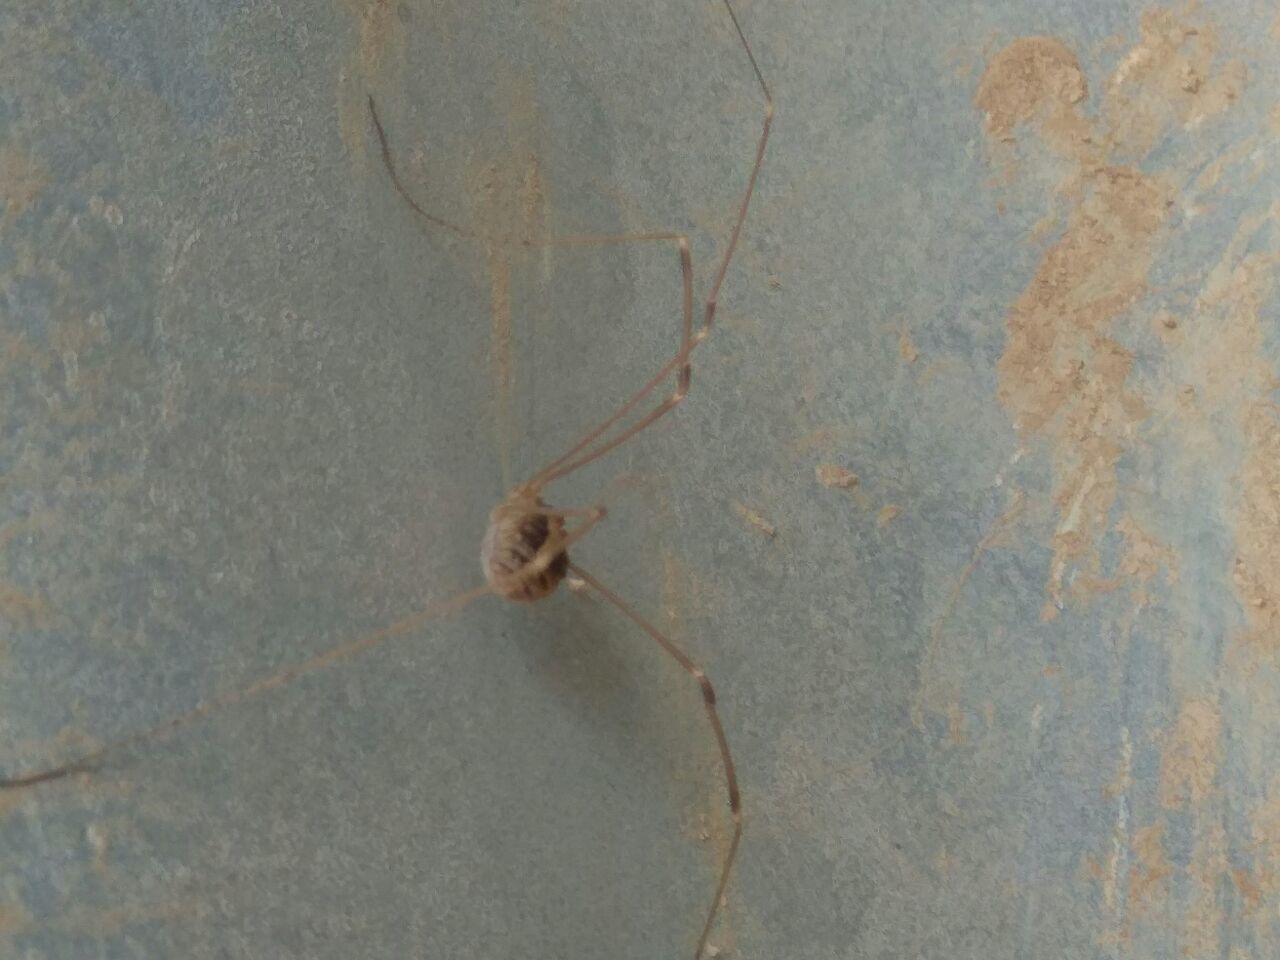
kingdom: Animalia
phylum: Arthropoda
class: Arachnida
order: Opiliones
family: Sclerosomatidae
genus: Cosmobunus
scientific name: Cosmobunus granarius
